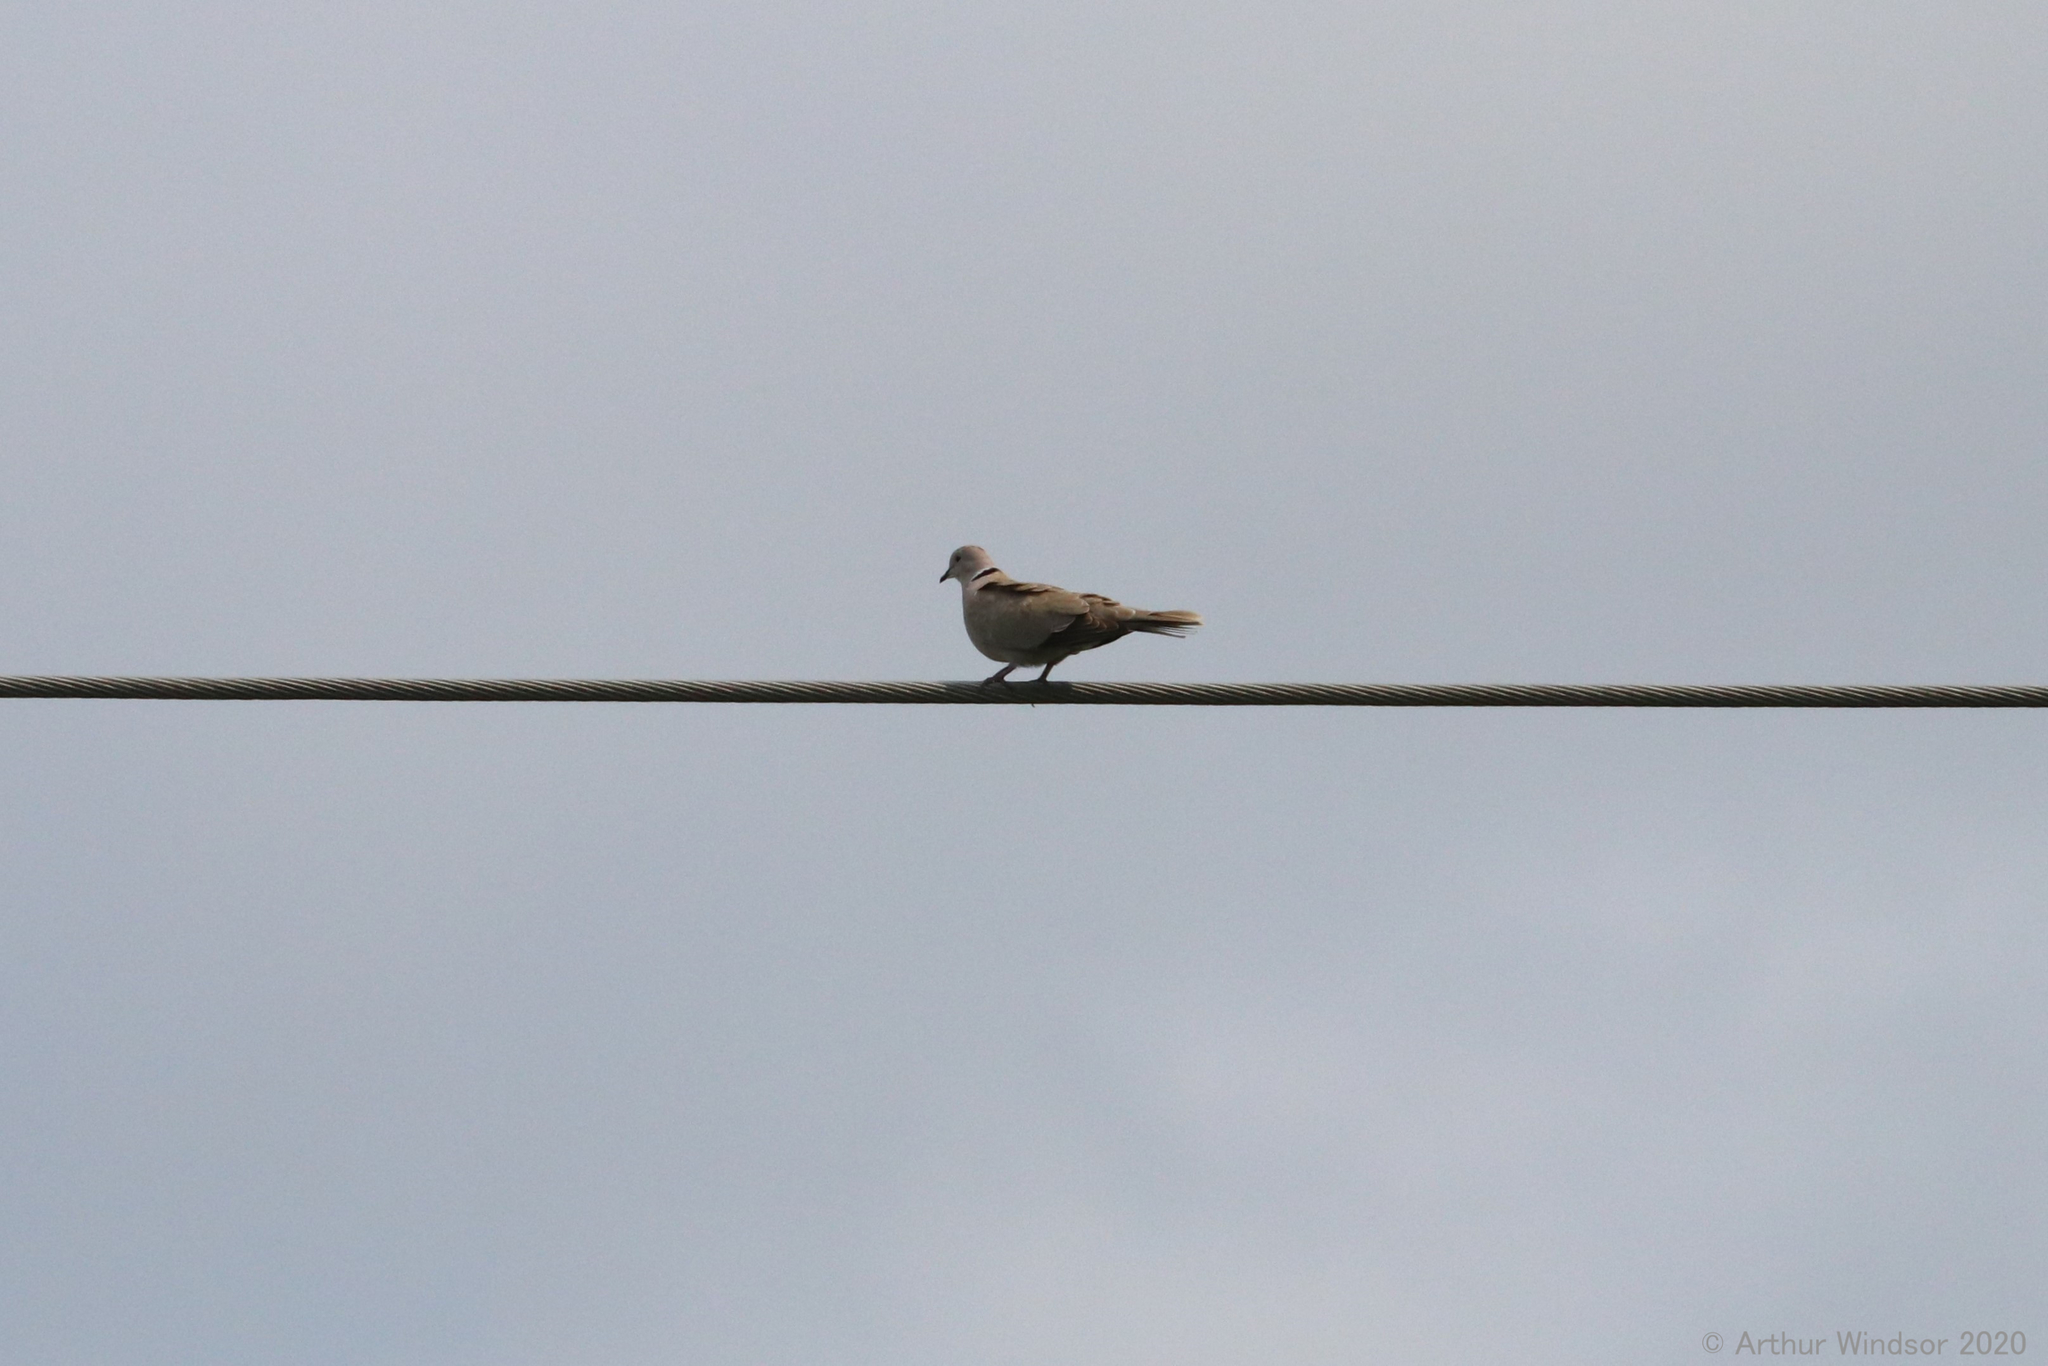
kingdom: Animalia
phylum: Chordata
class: Aves
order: Columbiformes
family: Columbidae
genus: Streptopelia
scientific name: Streptopelia decaocto
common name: Eurasian collared dove
